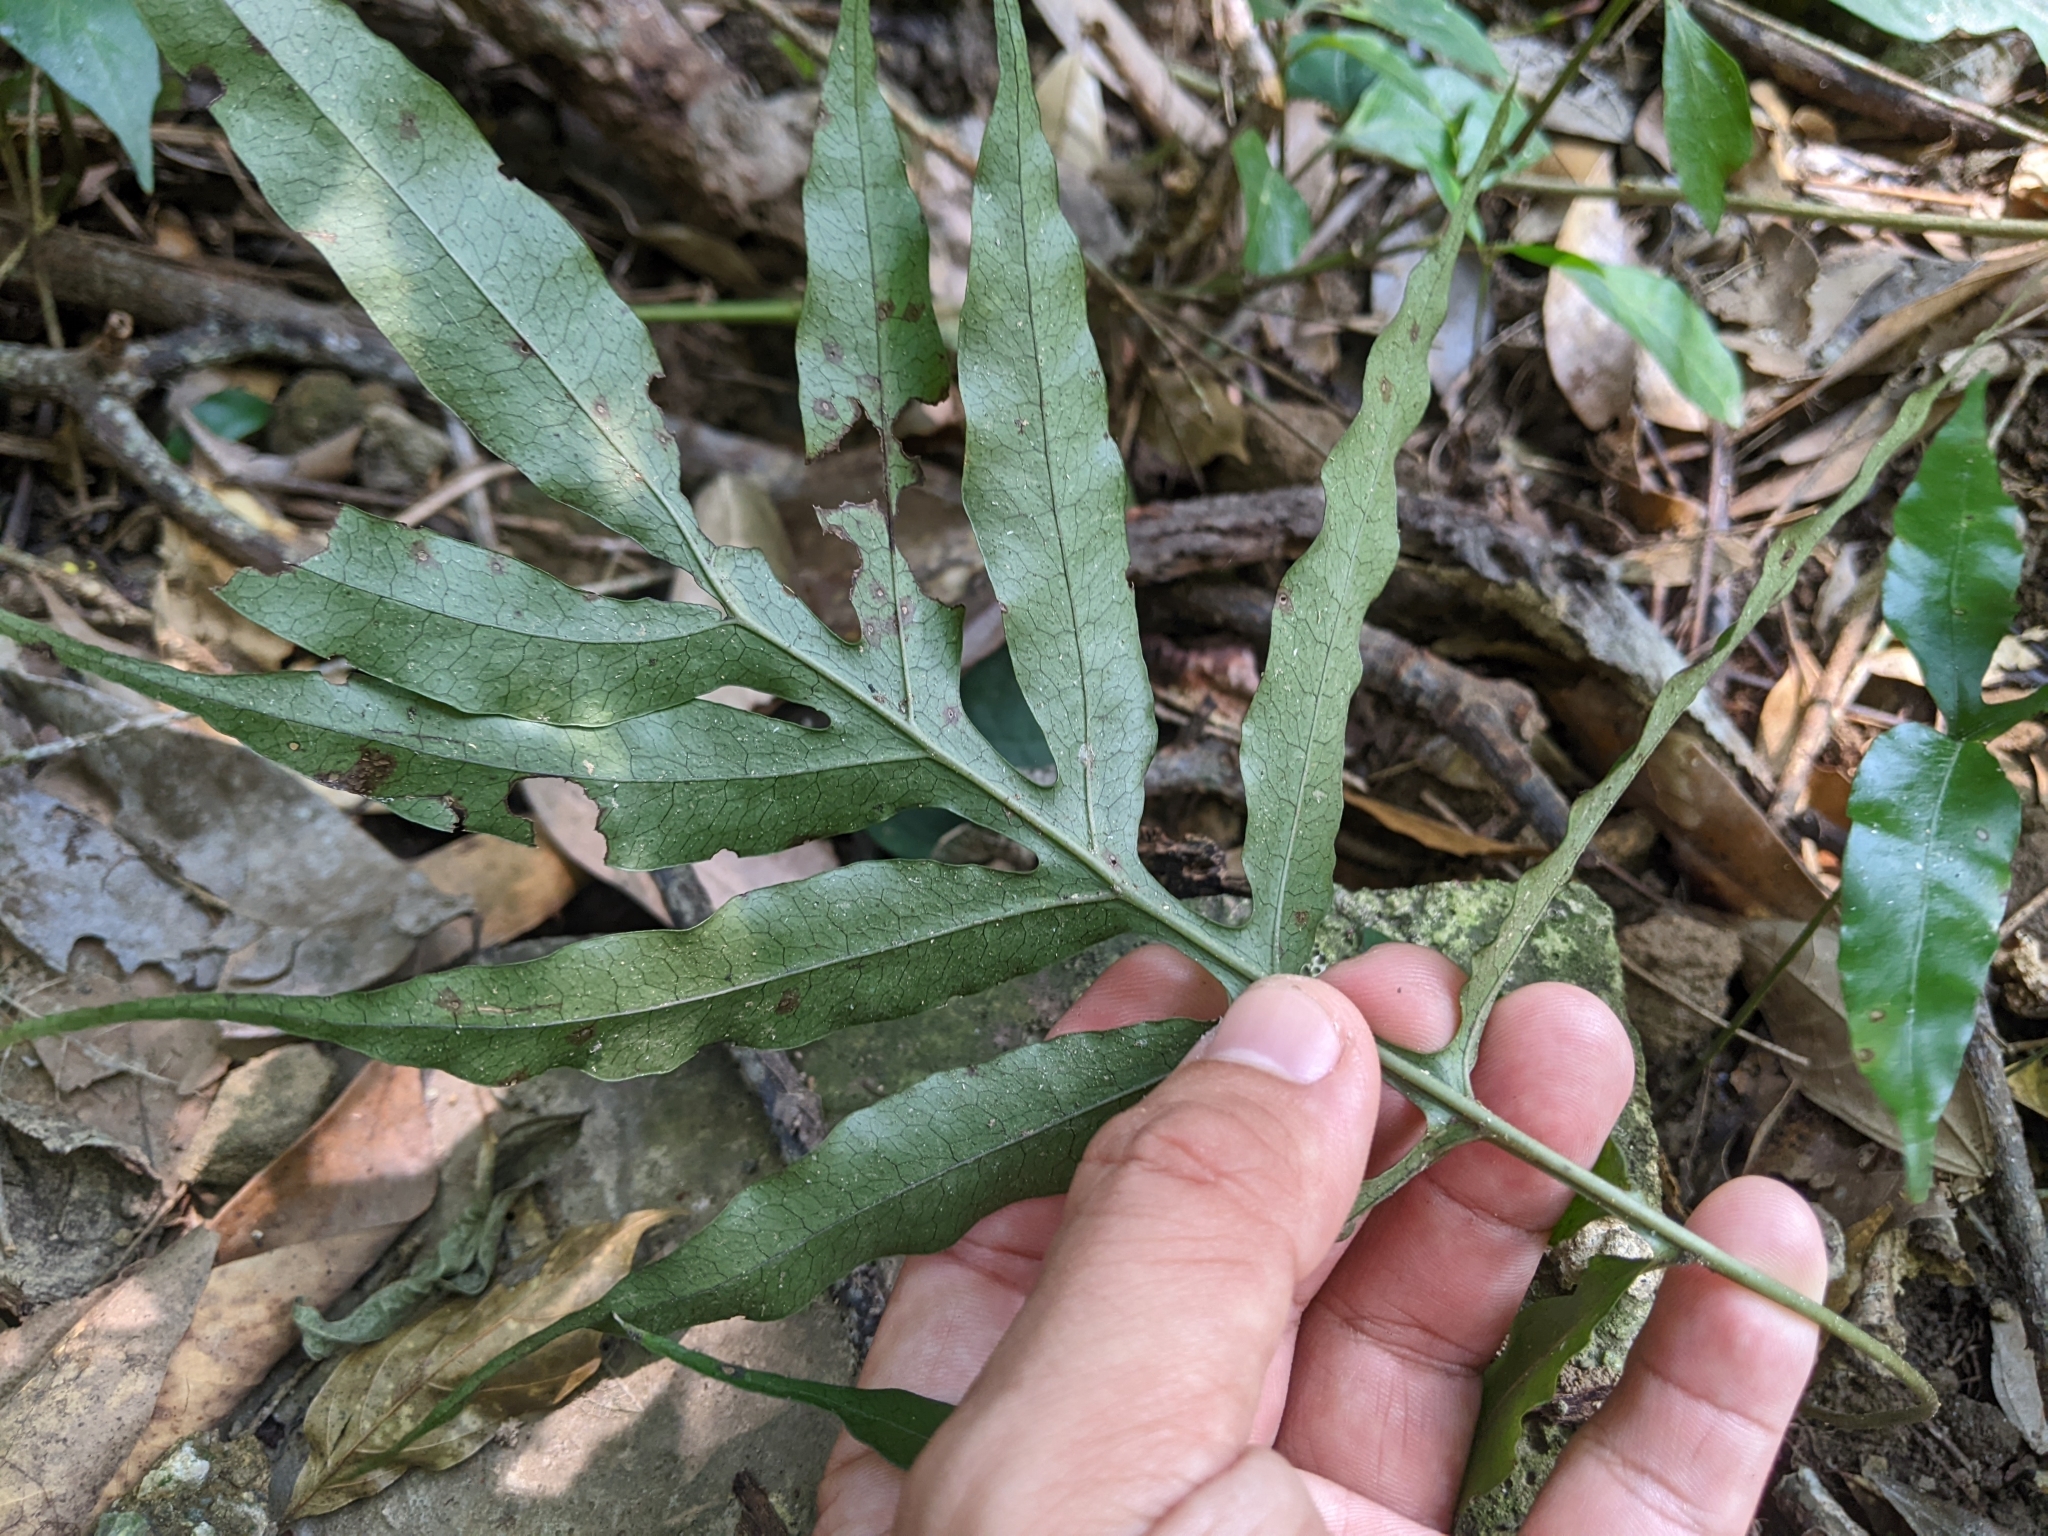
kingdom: Plantae
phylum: Tracheophyta
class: Polypodiopsida
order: Polypodiales
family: Polypodiaceae
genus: Leptochilus
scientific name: Leptochilus ellipticus
